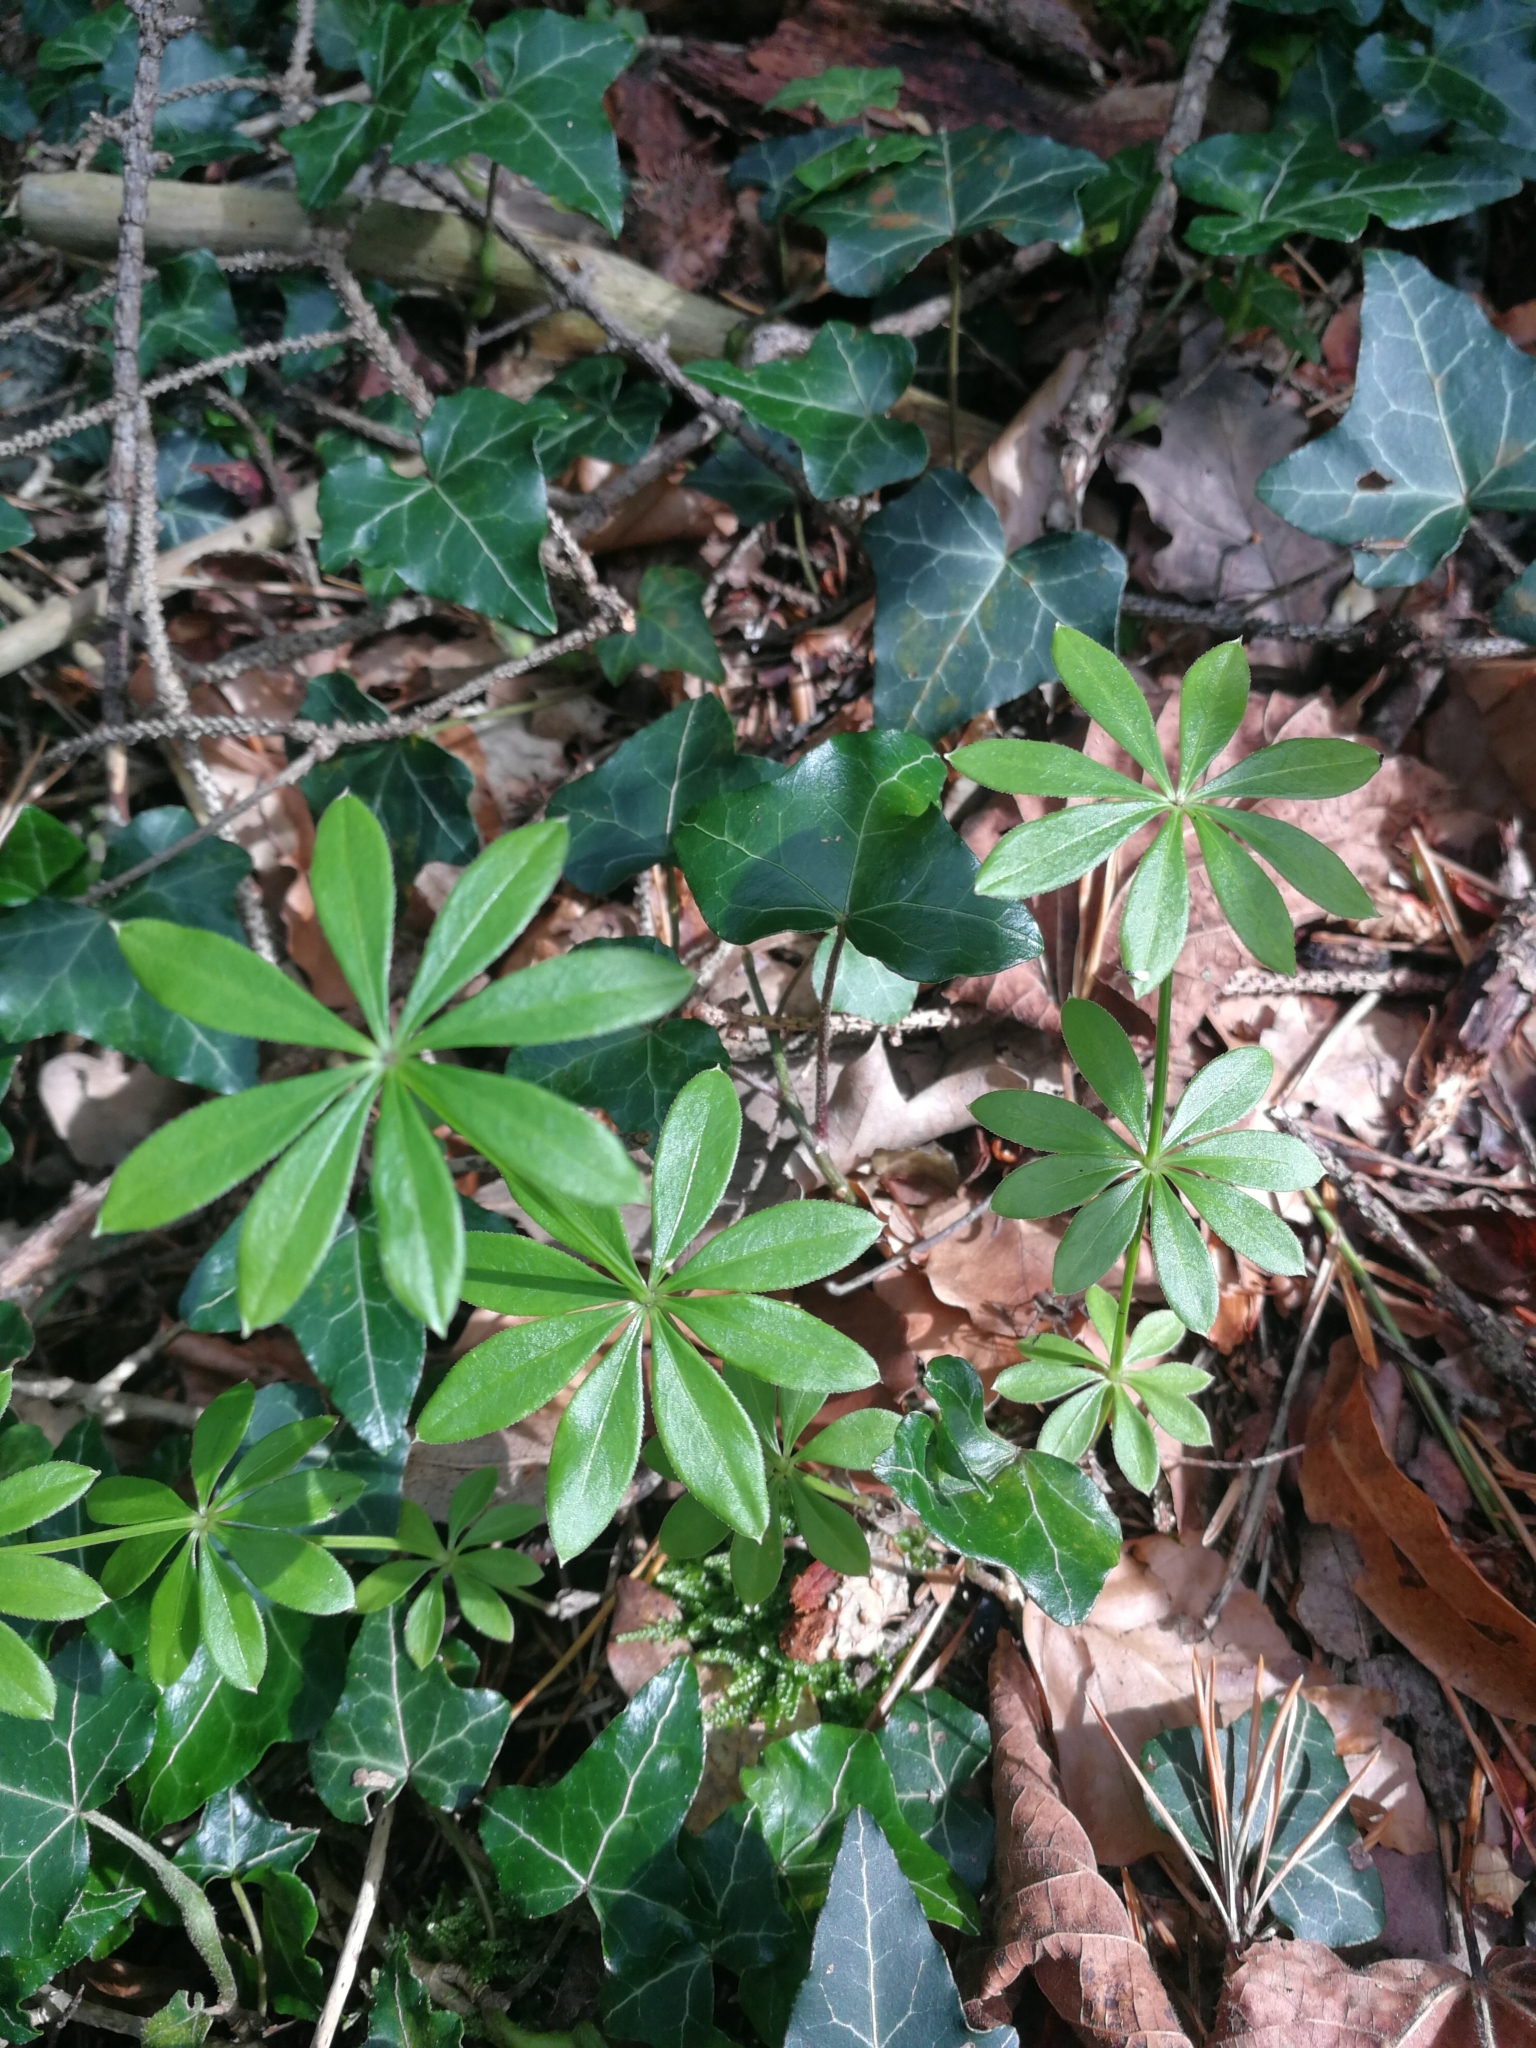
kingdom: Plantae
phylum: Tracheophyta
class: Magnoliopsida
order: Gentianales
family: Rubiaceae
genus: Galium
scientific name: Galium odoratum
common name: Sweet woodruff
